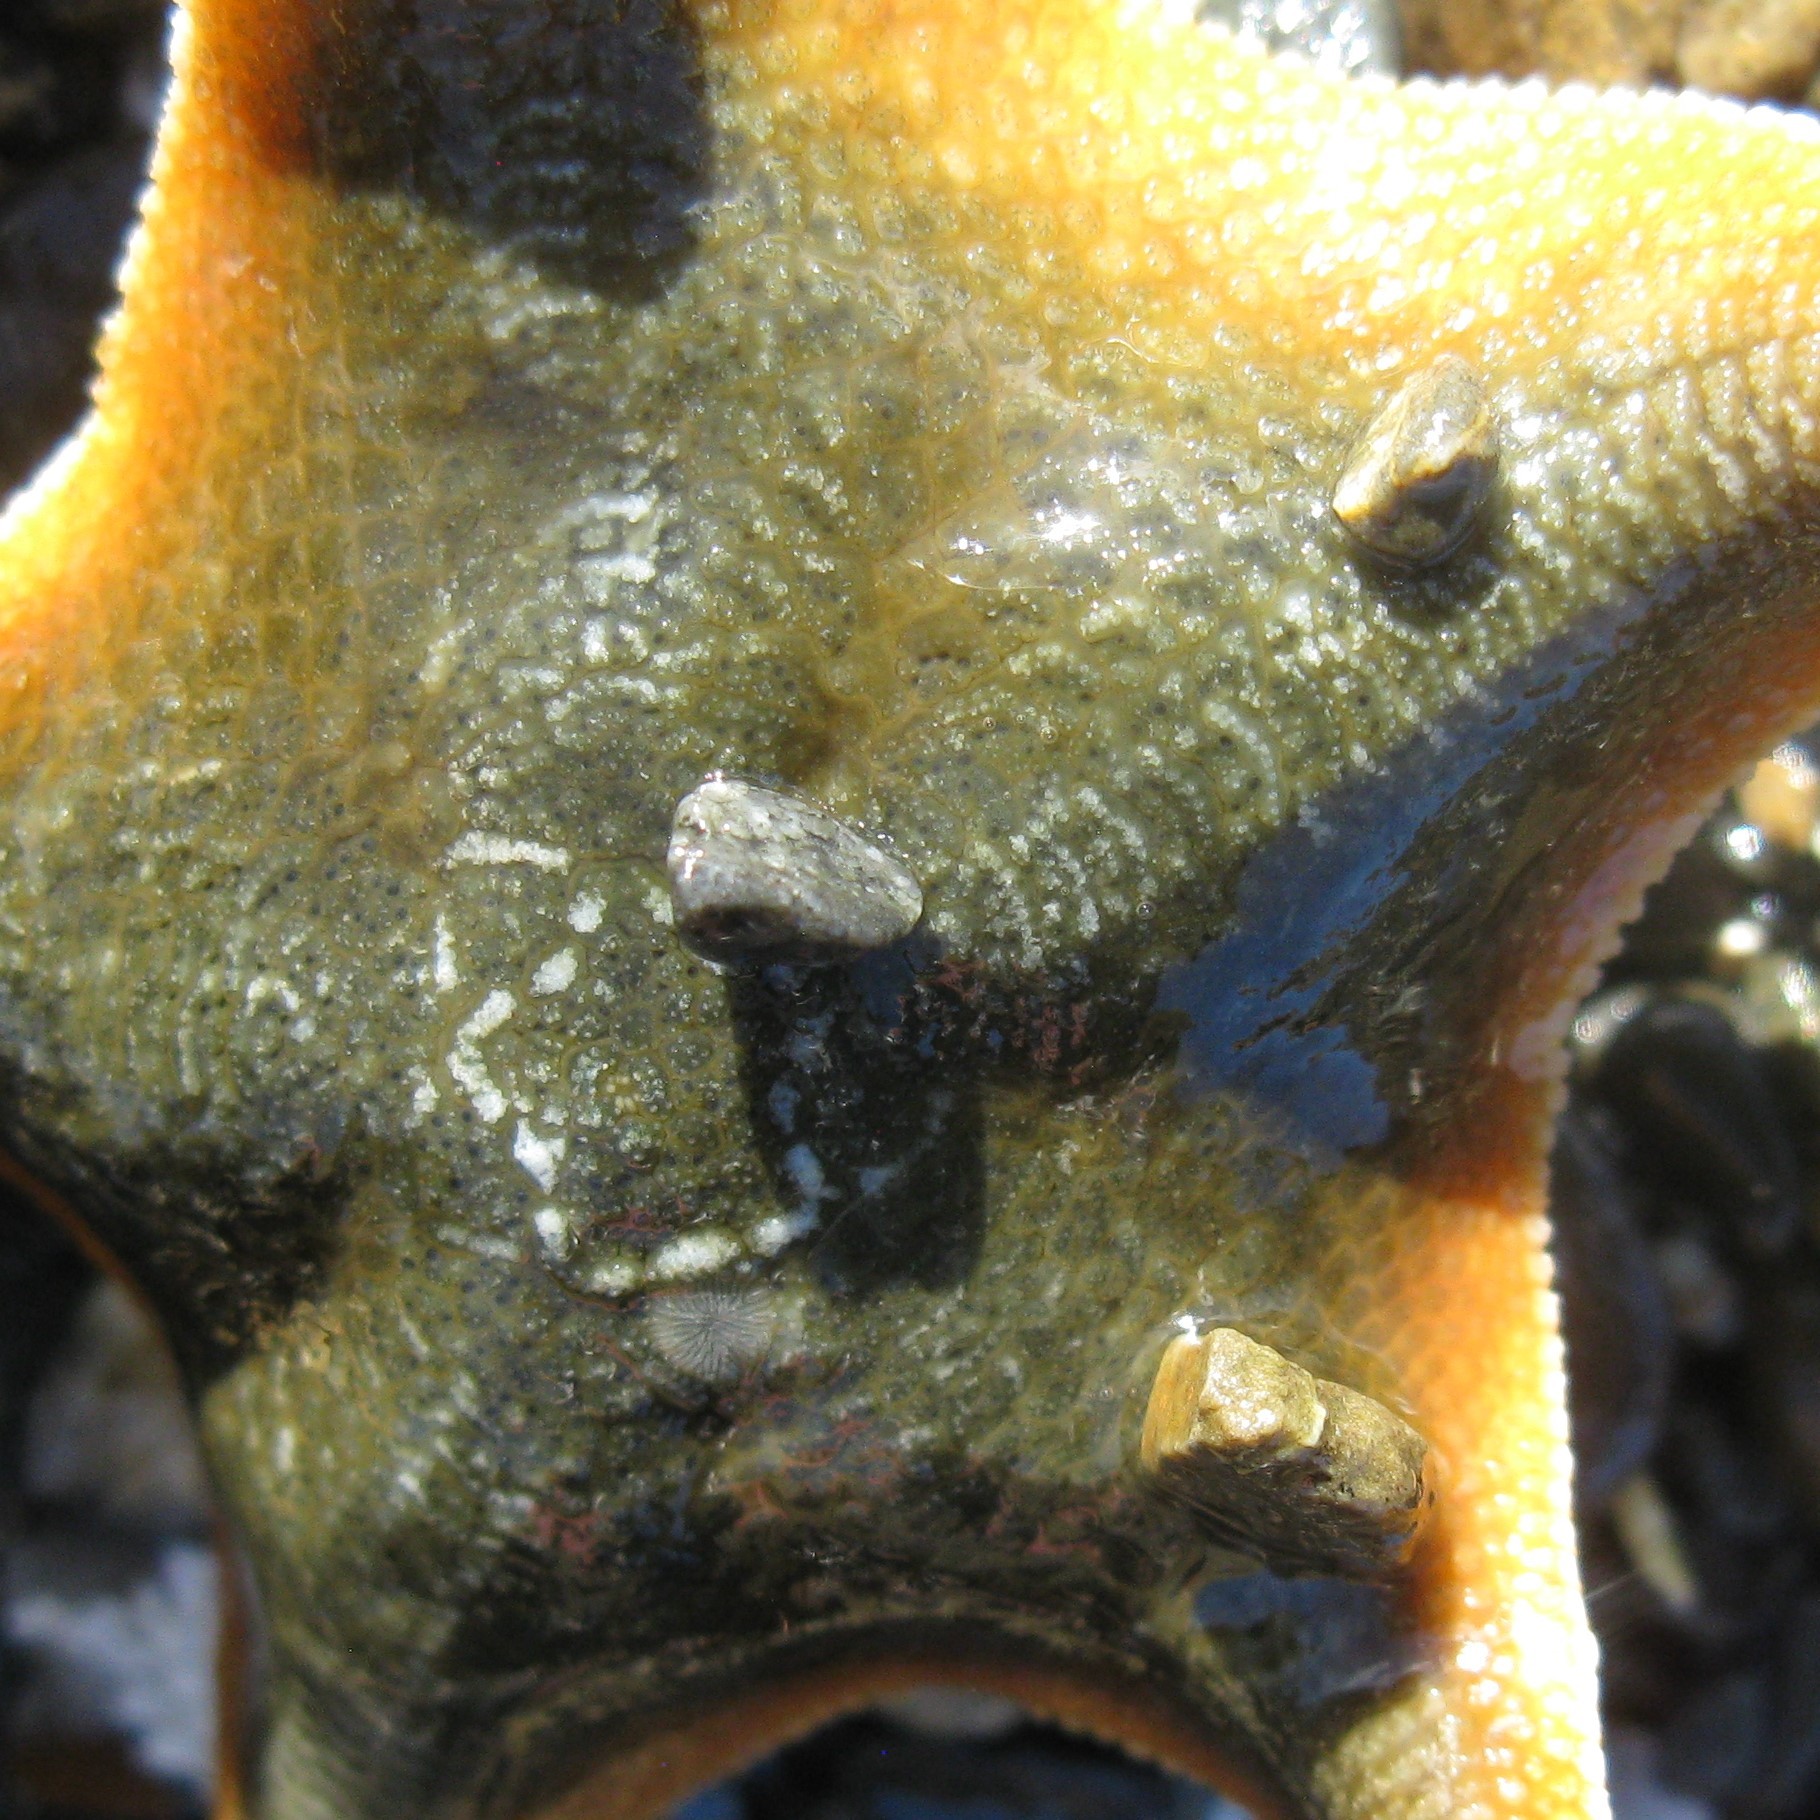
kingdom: Animalia
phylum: Echinodermata
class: Asteroidea
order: Valvatida
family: Asterinidae
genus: Patiriella
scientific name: Patiriella regularis
